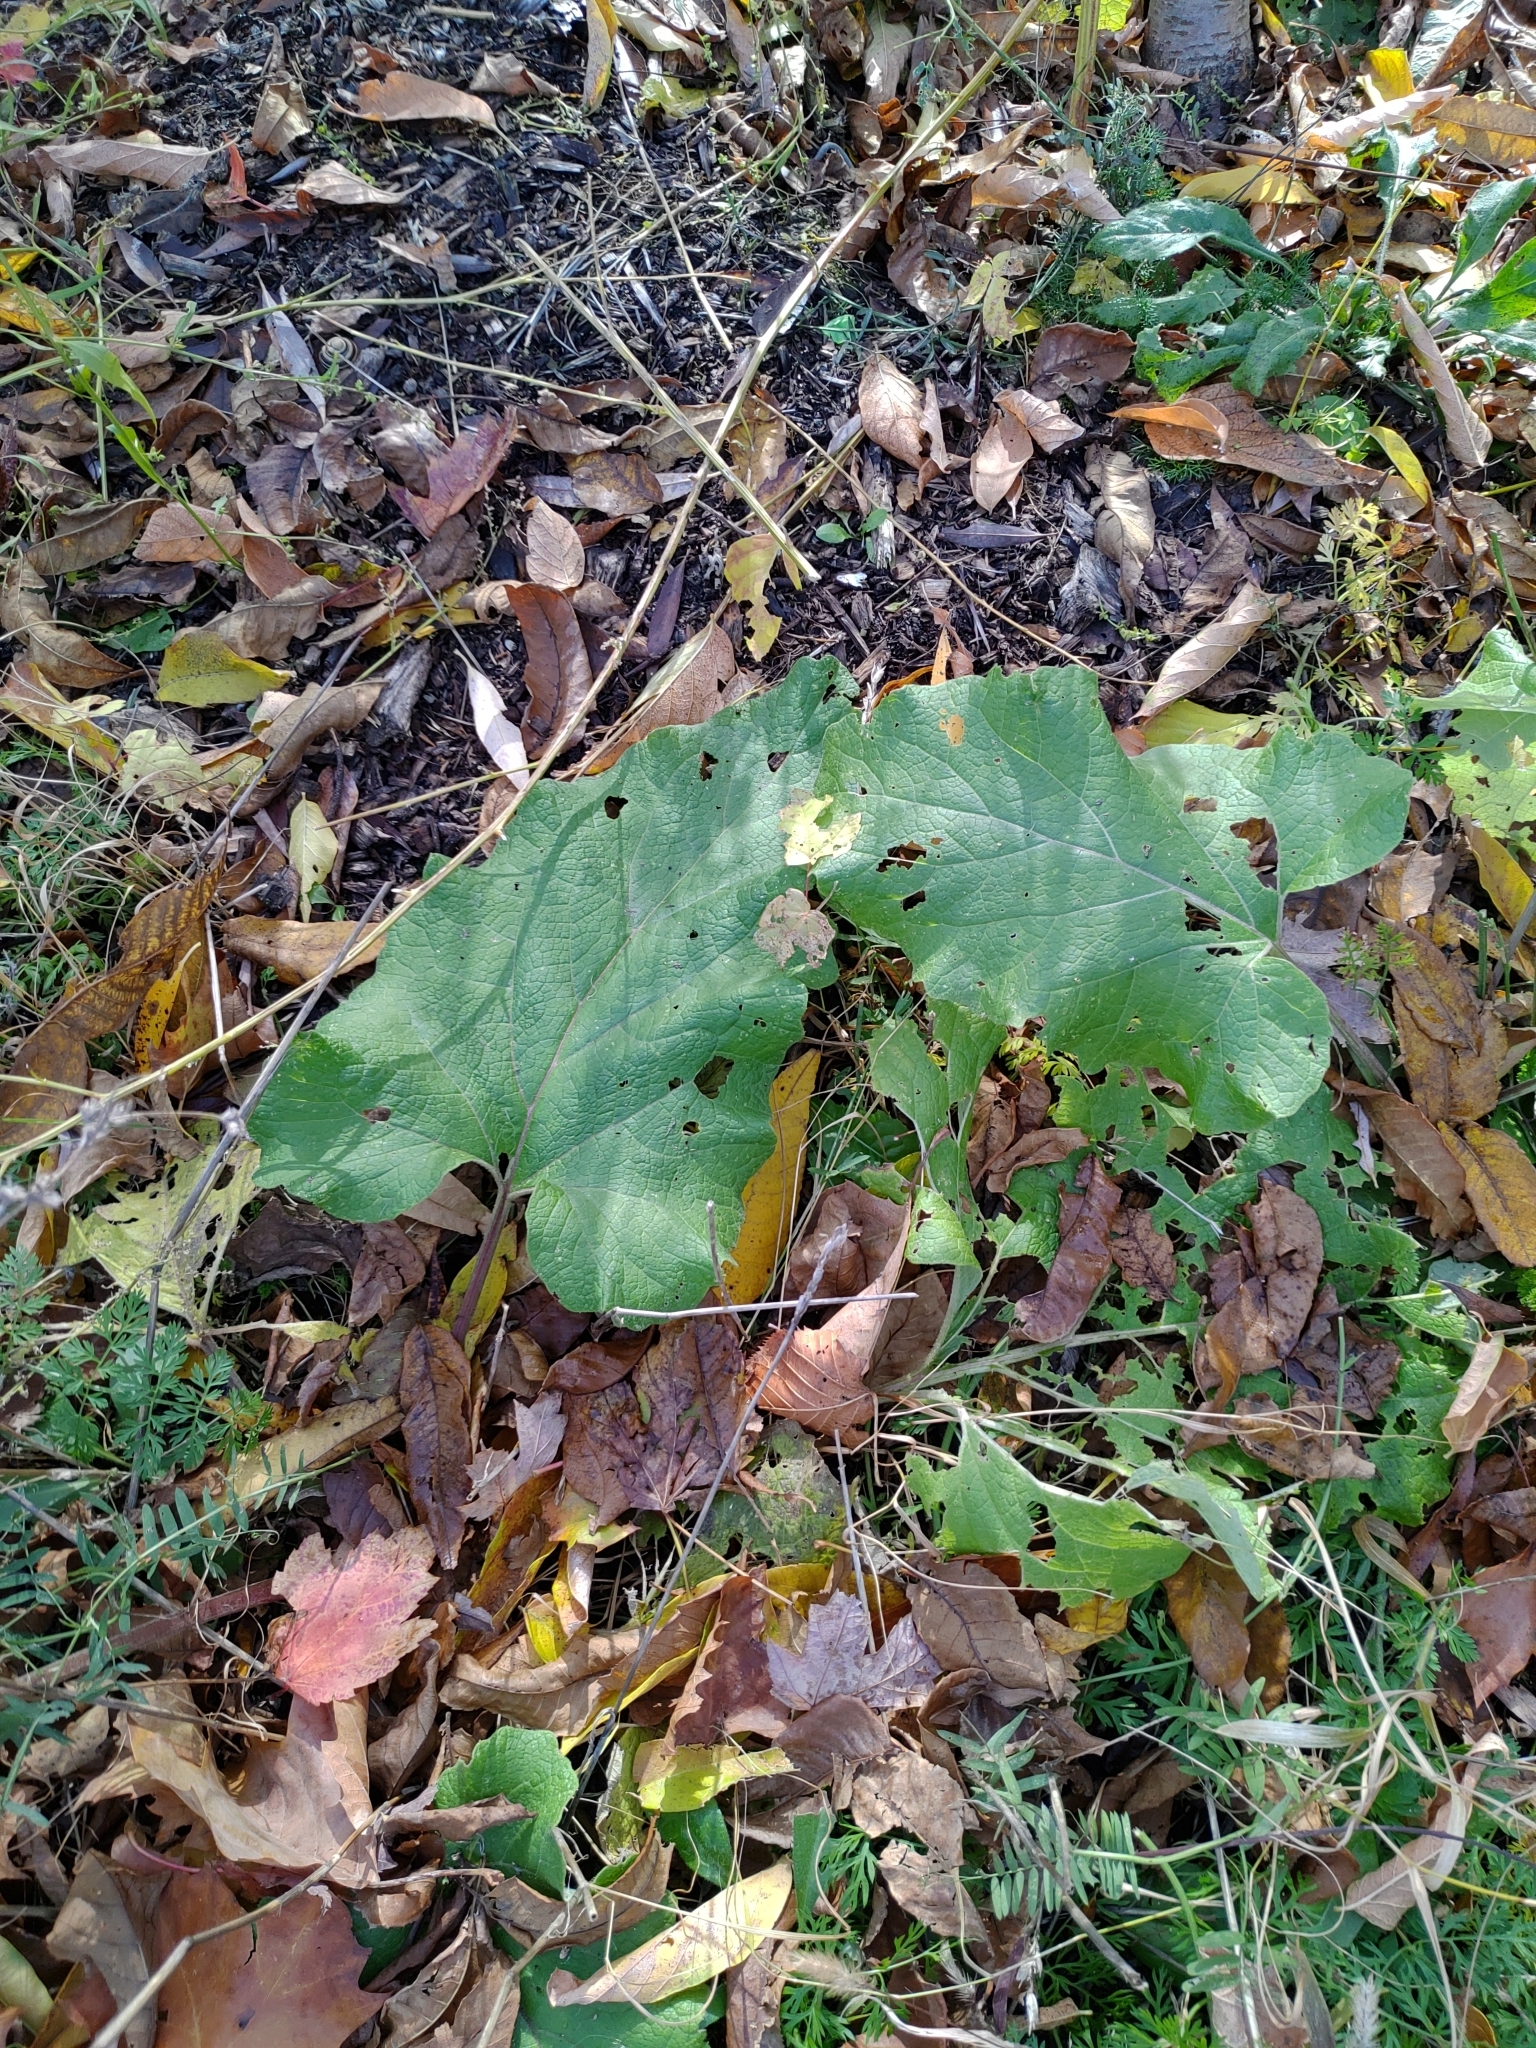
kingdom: Plantae
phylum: Tracheophyta
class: Magnoliopsida
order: Asterales
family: Asteraceae
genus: Arctium
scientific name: Arctium
